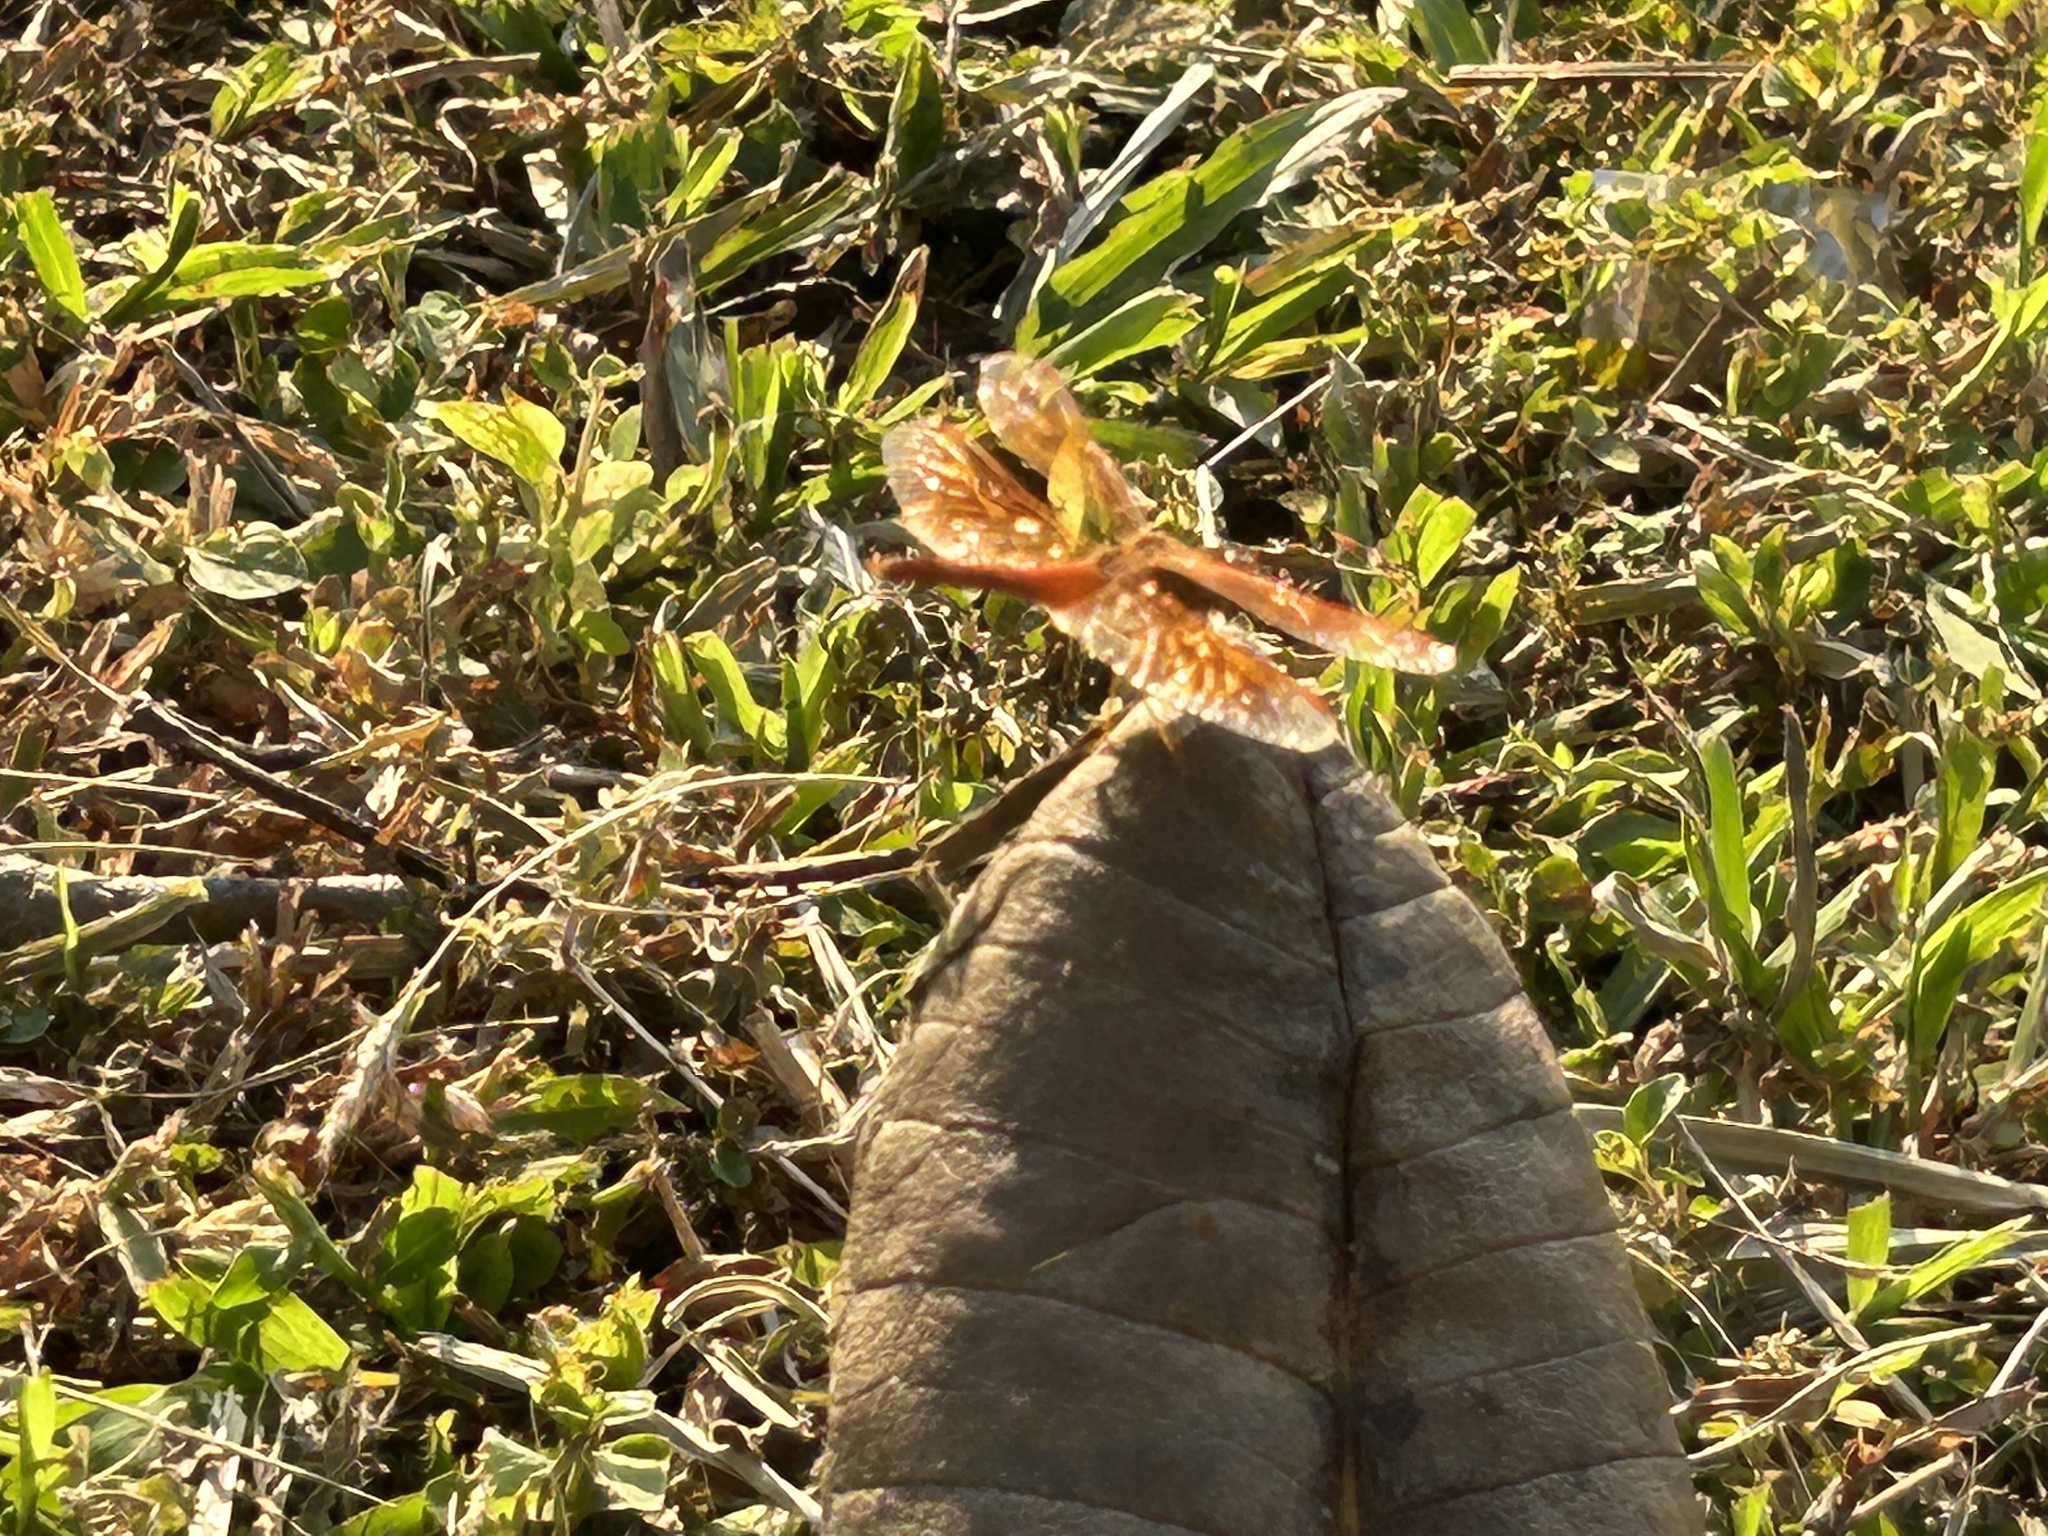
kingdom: Animalia
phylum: Arthropoda
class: Insecta
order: Odonata
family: Libellulidae
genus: Brachythemis
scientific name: Brachythemis contaminata
